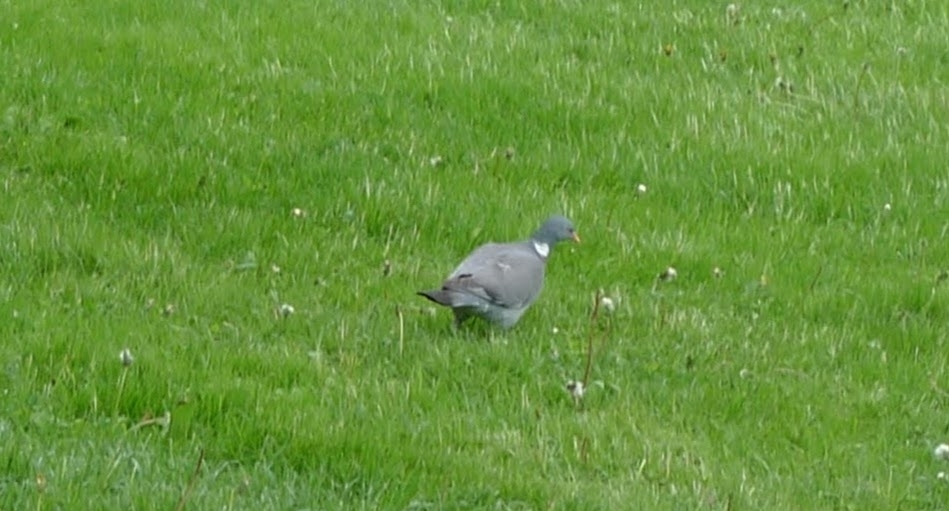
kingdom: Animalia
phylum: Chordata
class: Aves
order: Columbiformes
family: Columbidae
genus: Columba
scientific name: Columba palumbus
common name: Common wood pigeon
